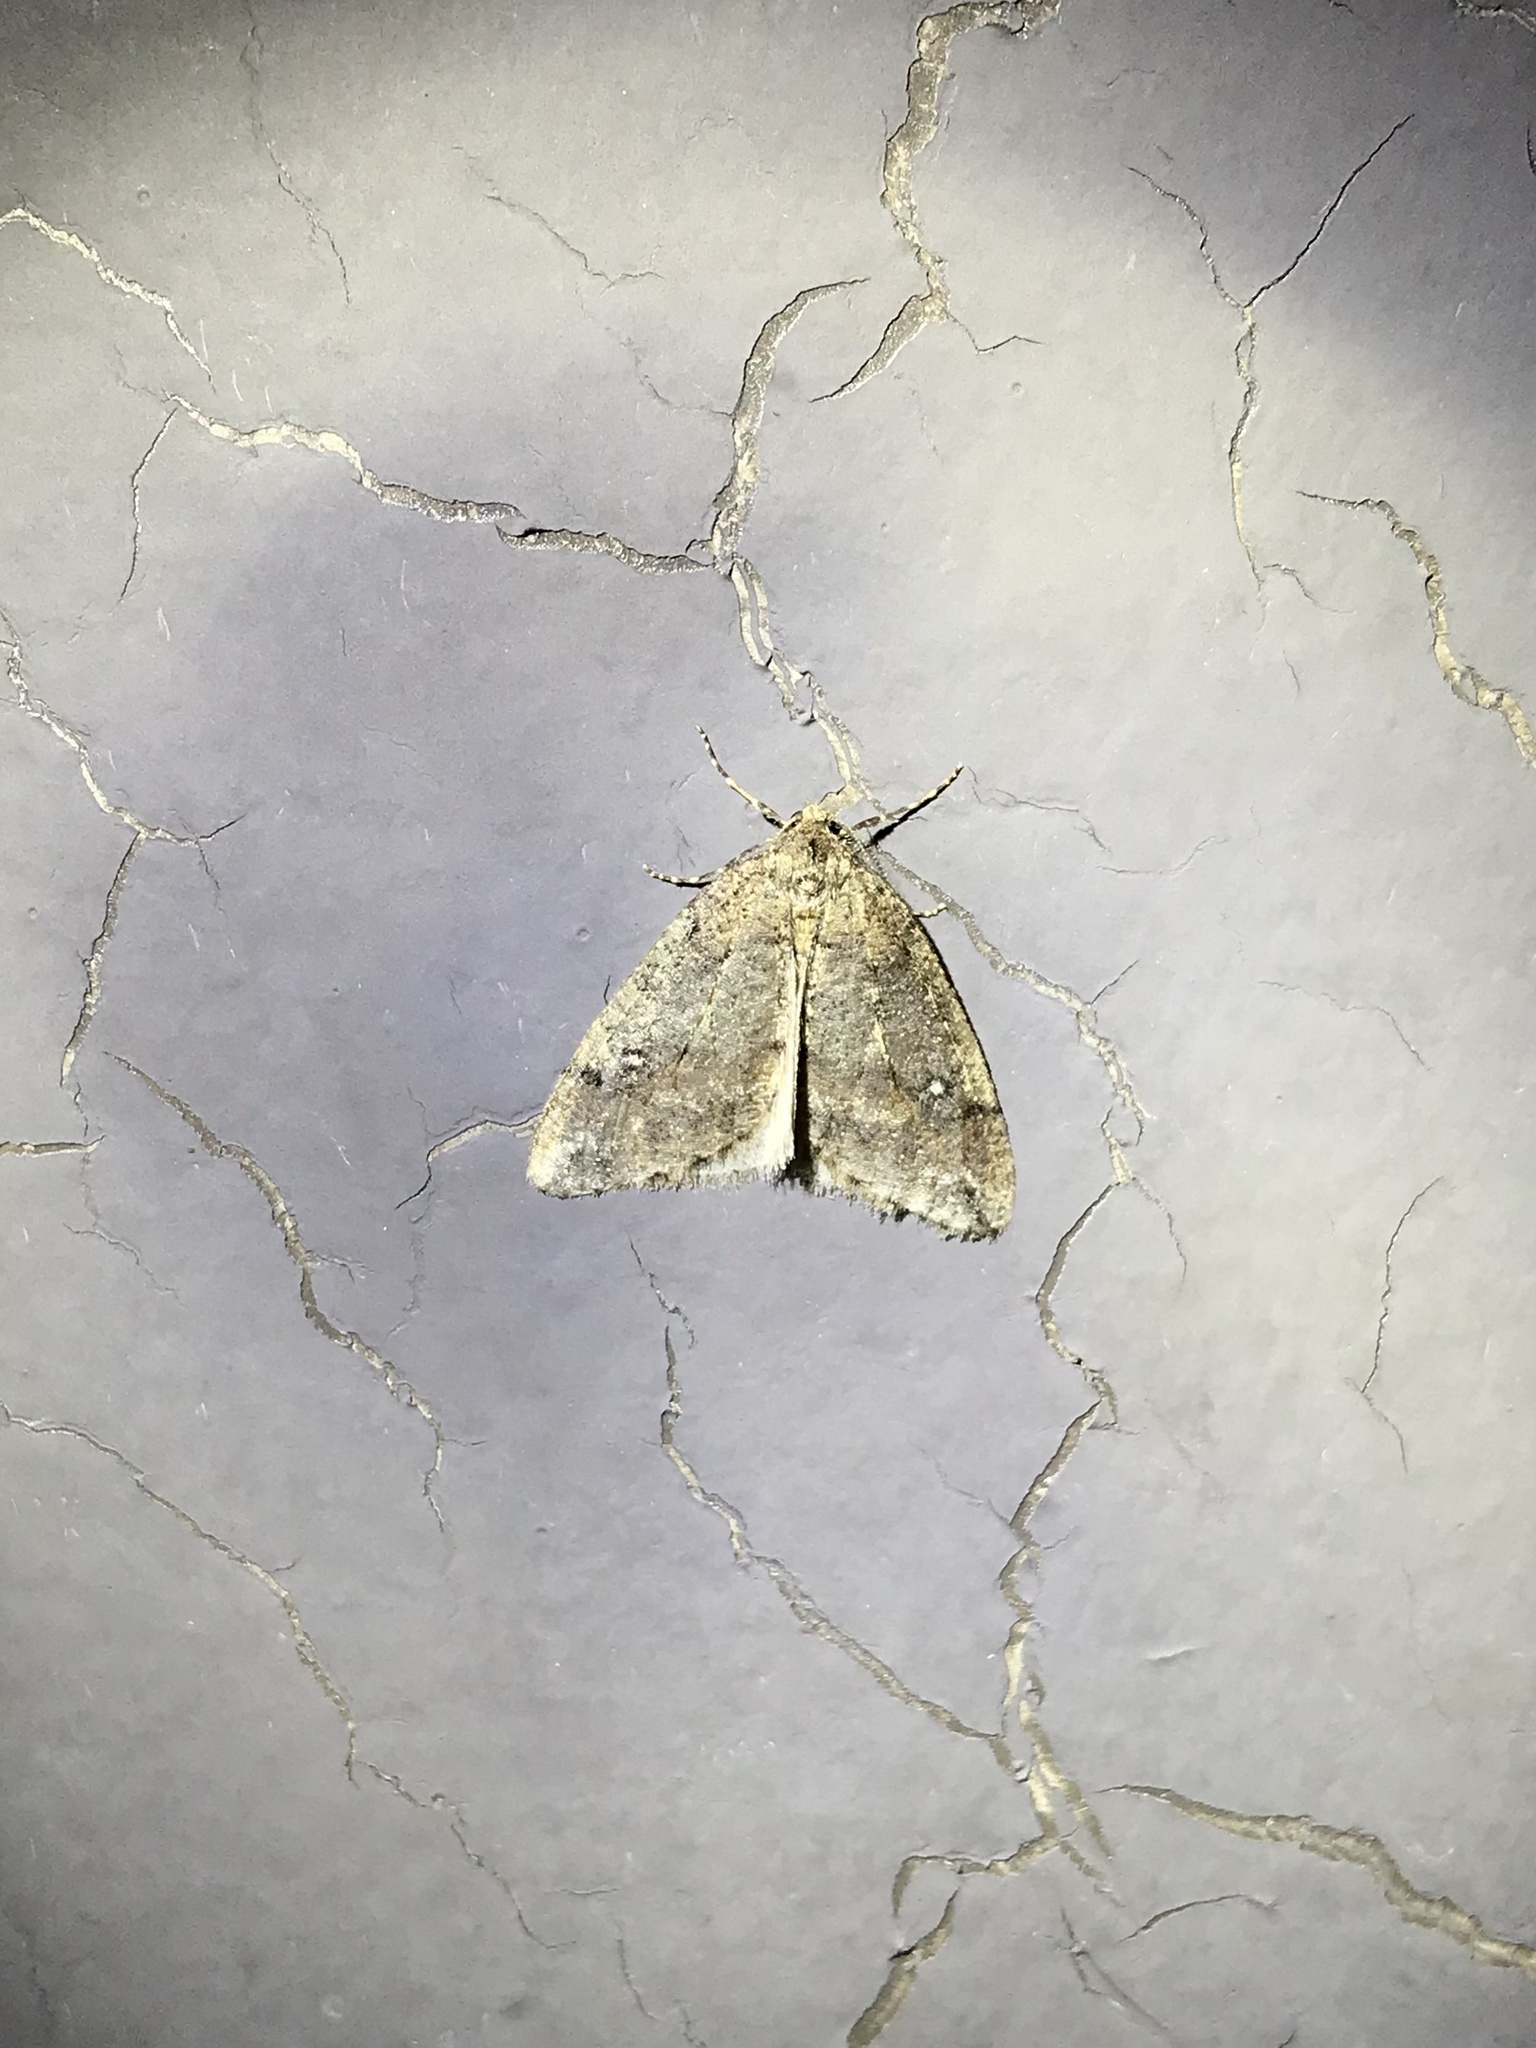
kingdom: Animalia
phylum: Arthropoda
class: Insecta
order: Lepidoptera
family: Geometridae
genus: Paleacrita
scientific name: Paleacrita merriccata
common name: White-spotted canker worm
